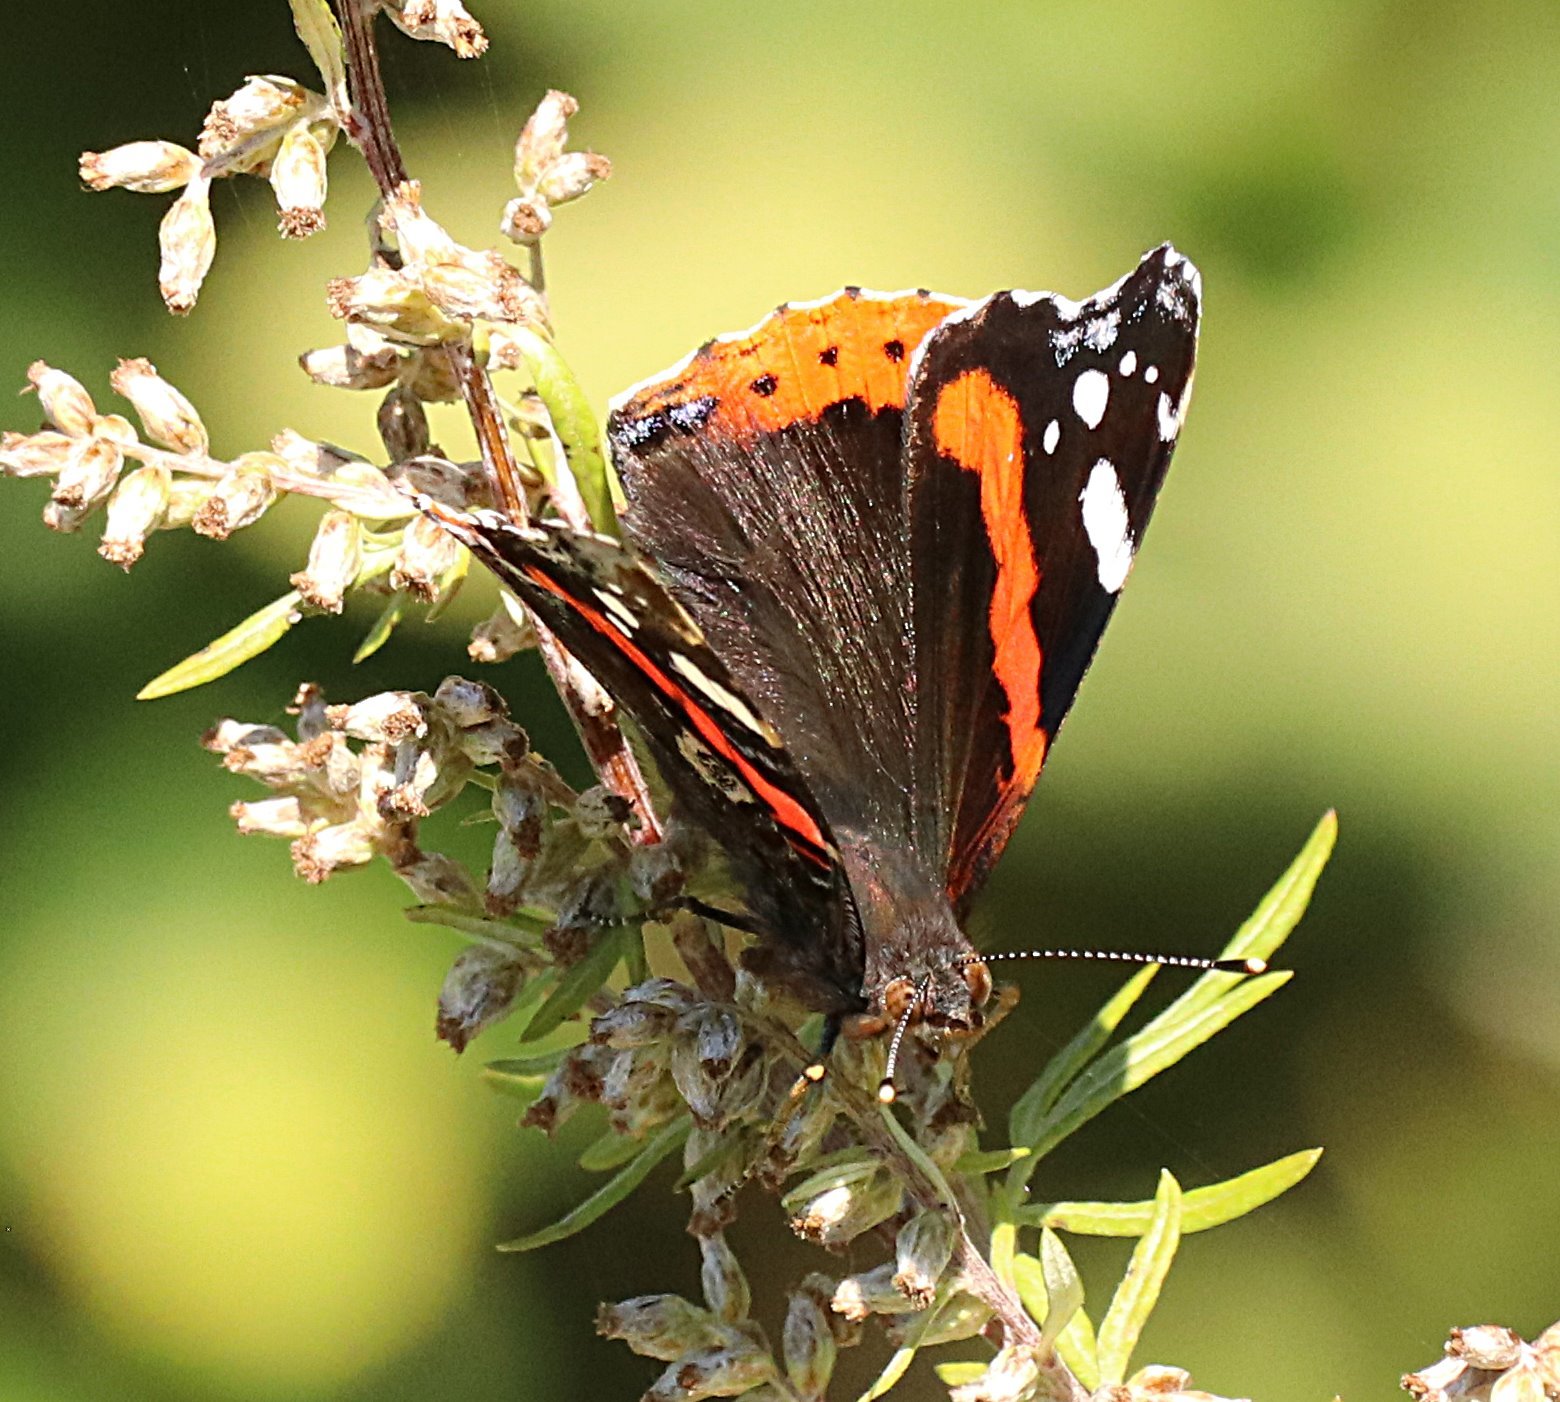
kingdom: Animalia
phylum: Arthropoda
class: Insecta
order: Lepidoptera
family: Nymphalidae
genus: Vanessa
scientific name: Vanessa atalanta
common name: Red admiral
